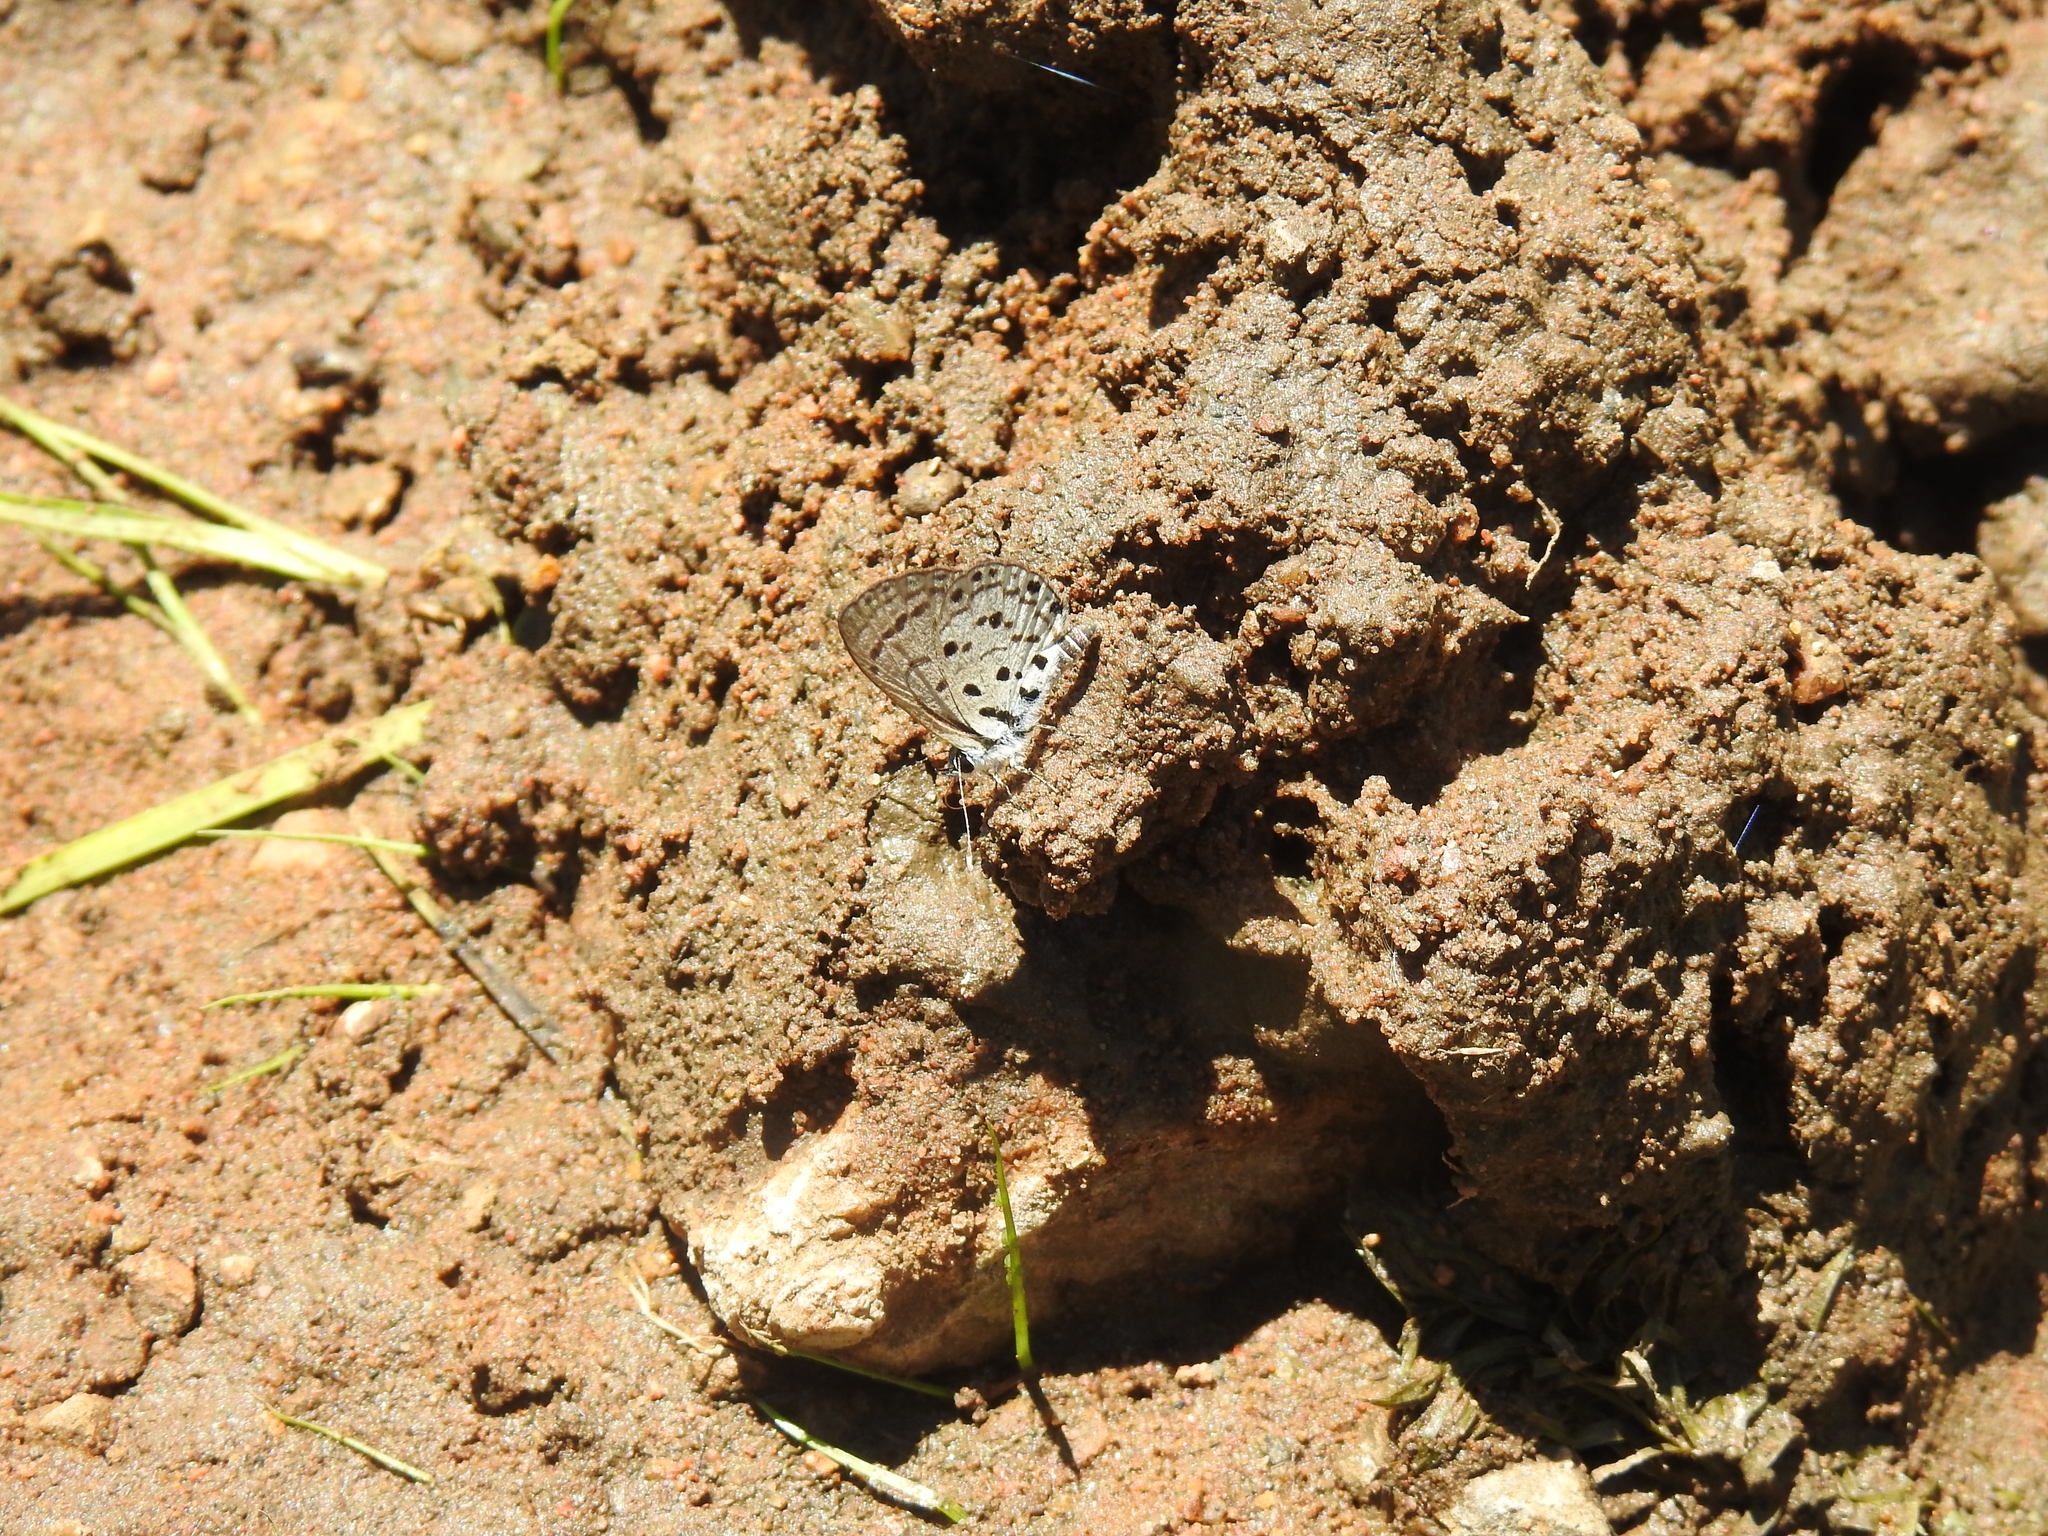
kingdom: Animalia
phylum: Arthropoda
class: Insecta
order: Lepidoptera
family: Lycaenidae
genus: Azanus
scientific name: Azanus moriqua
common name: Thorn-tree babul blue
